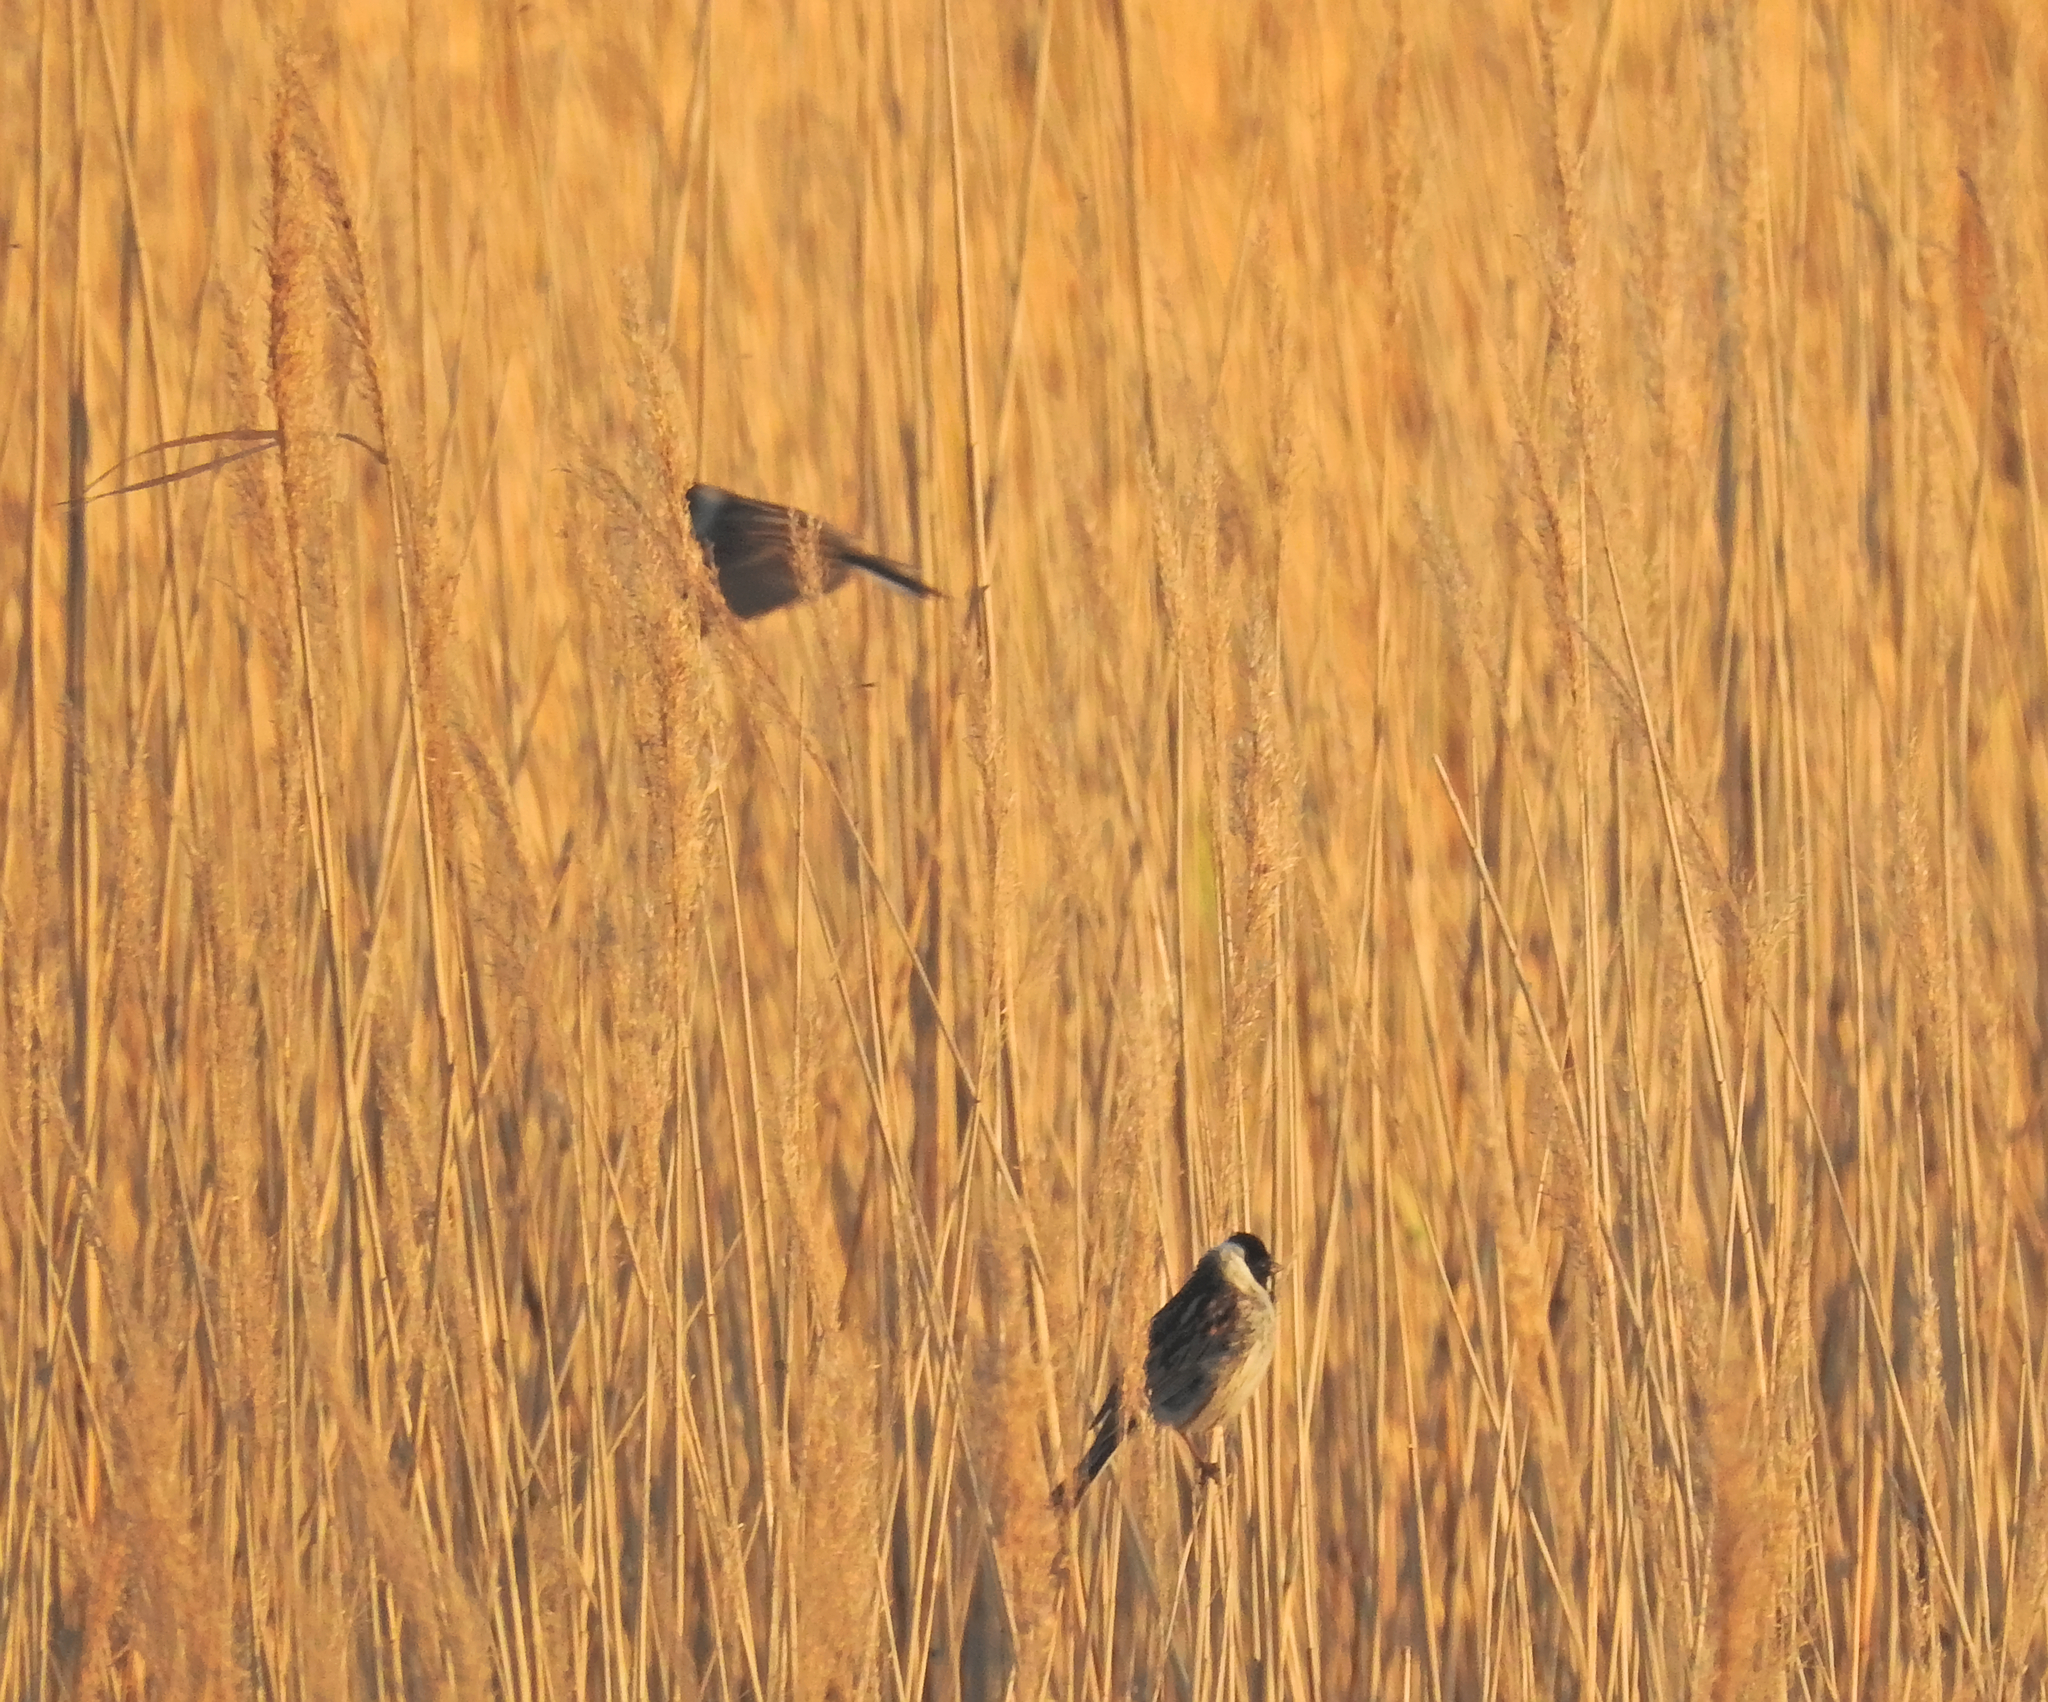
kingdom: Animalia
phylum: Chordata
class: Aves
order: Passeriformes
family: Emberizidae
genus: Emberiza
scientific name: Emberiza schoeniclus
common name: Reed bunting
